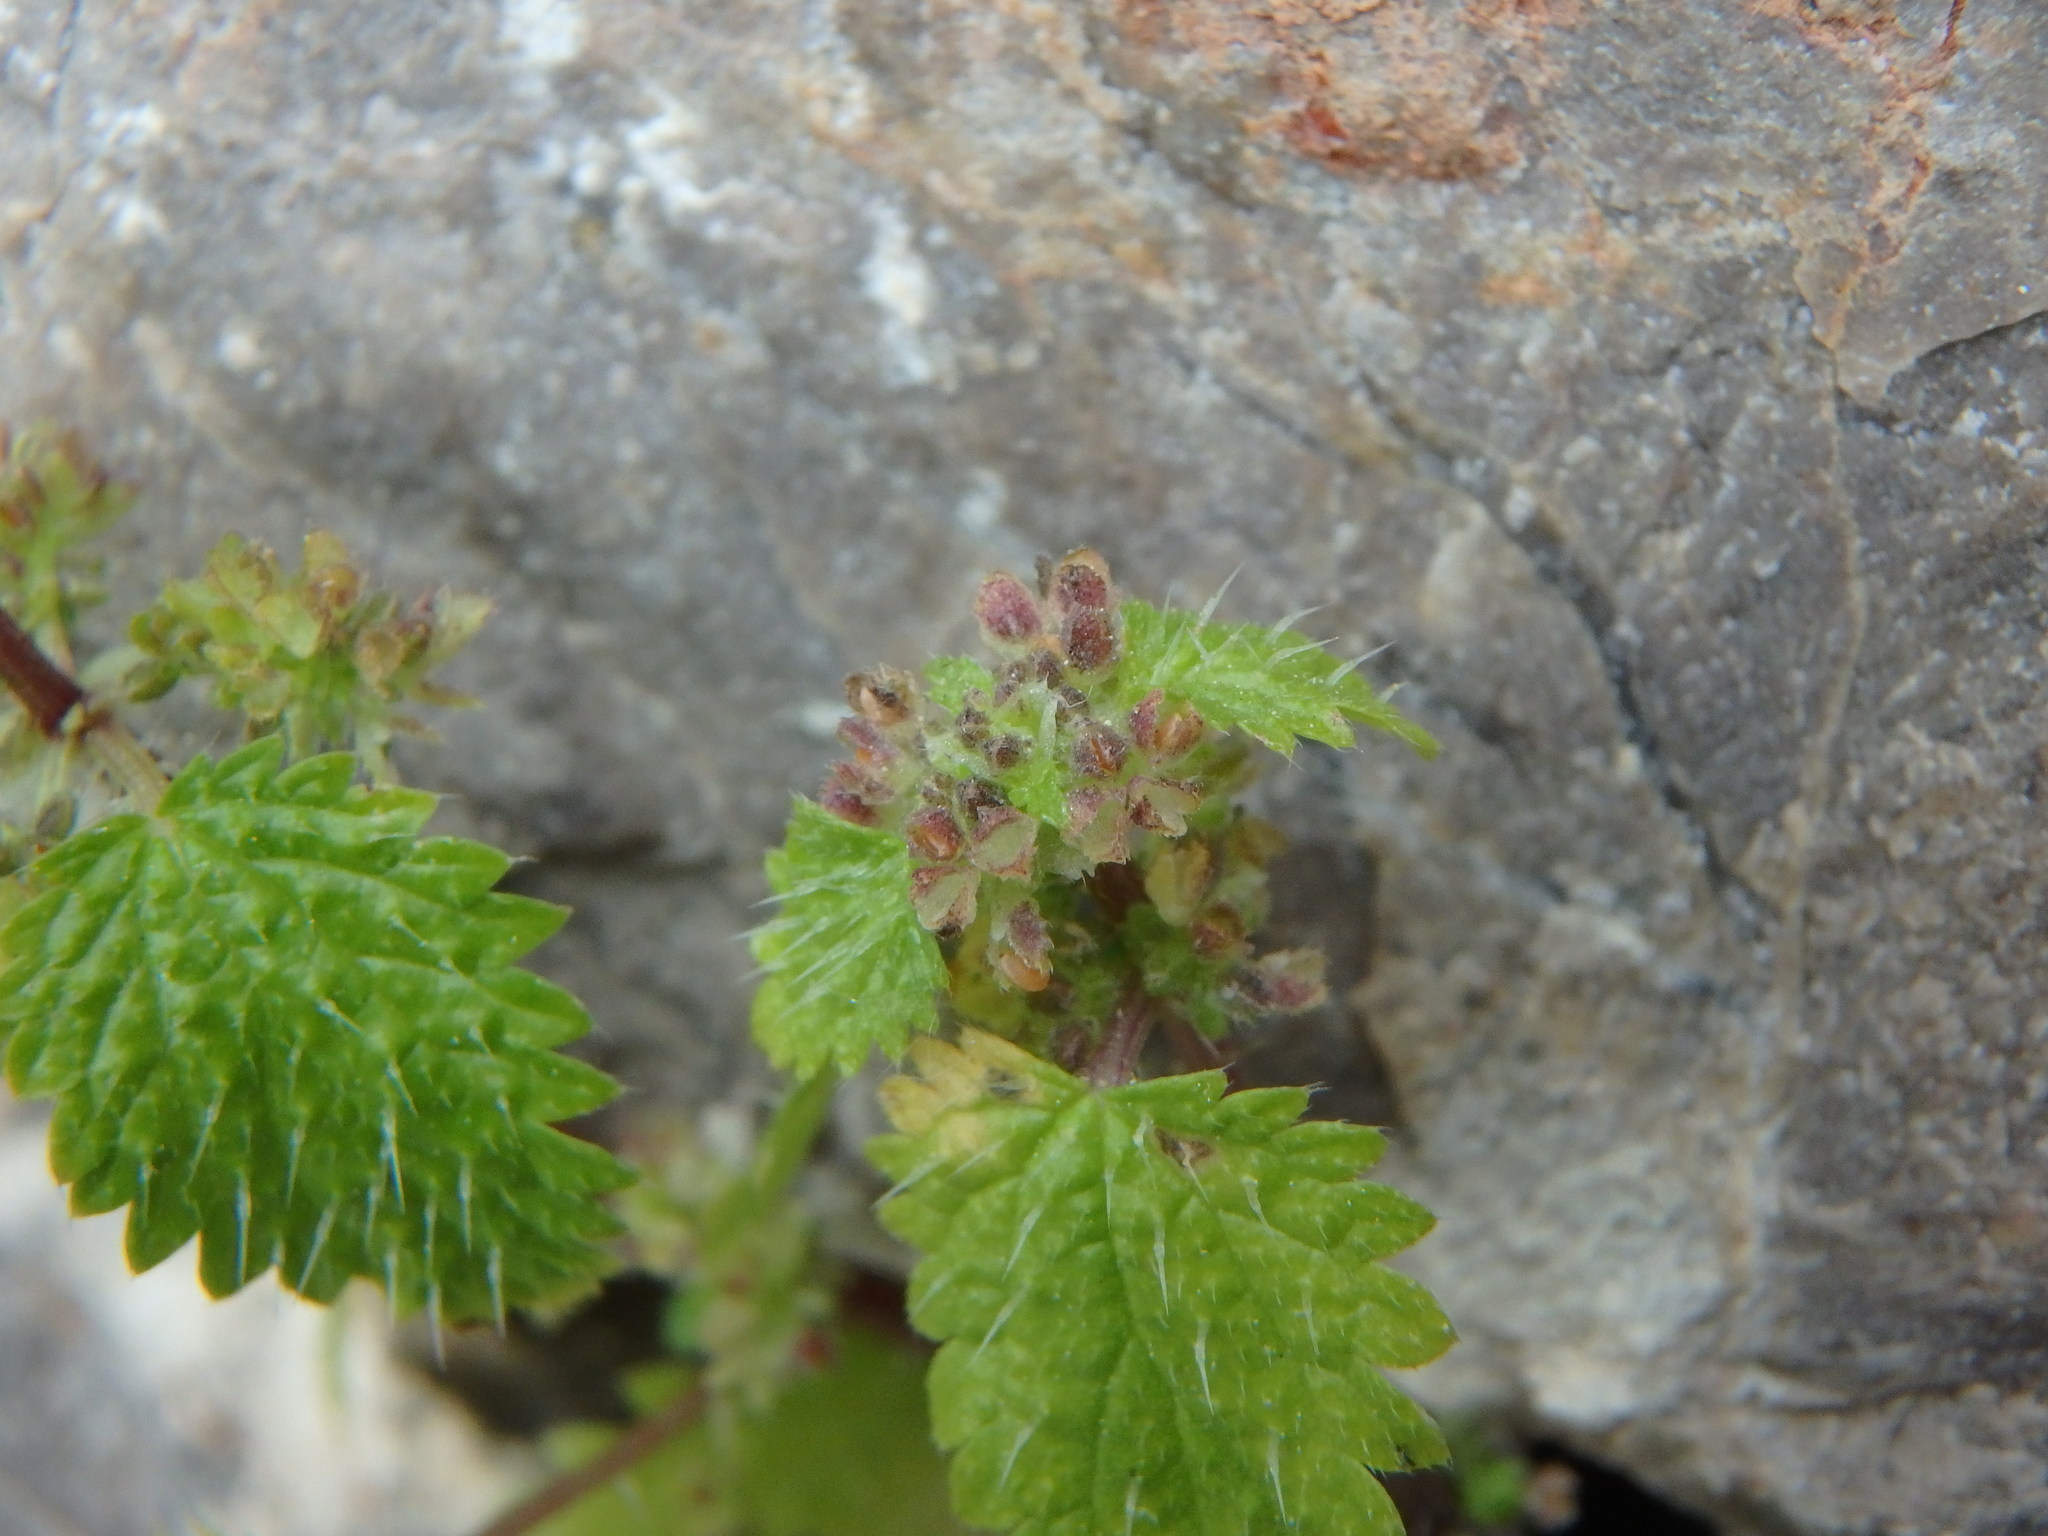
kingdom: Plantae
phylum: Tracheophyta
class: Magnoliopsida
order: Rosales
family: Urticaceae
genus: Urtica
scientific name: Urtica membranacea
